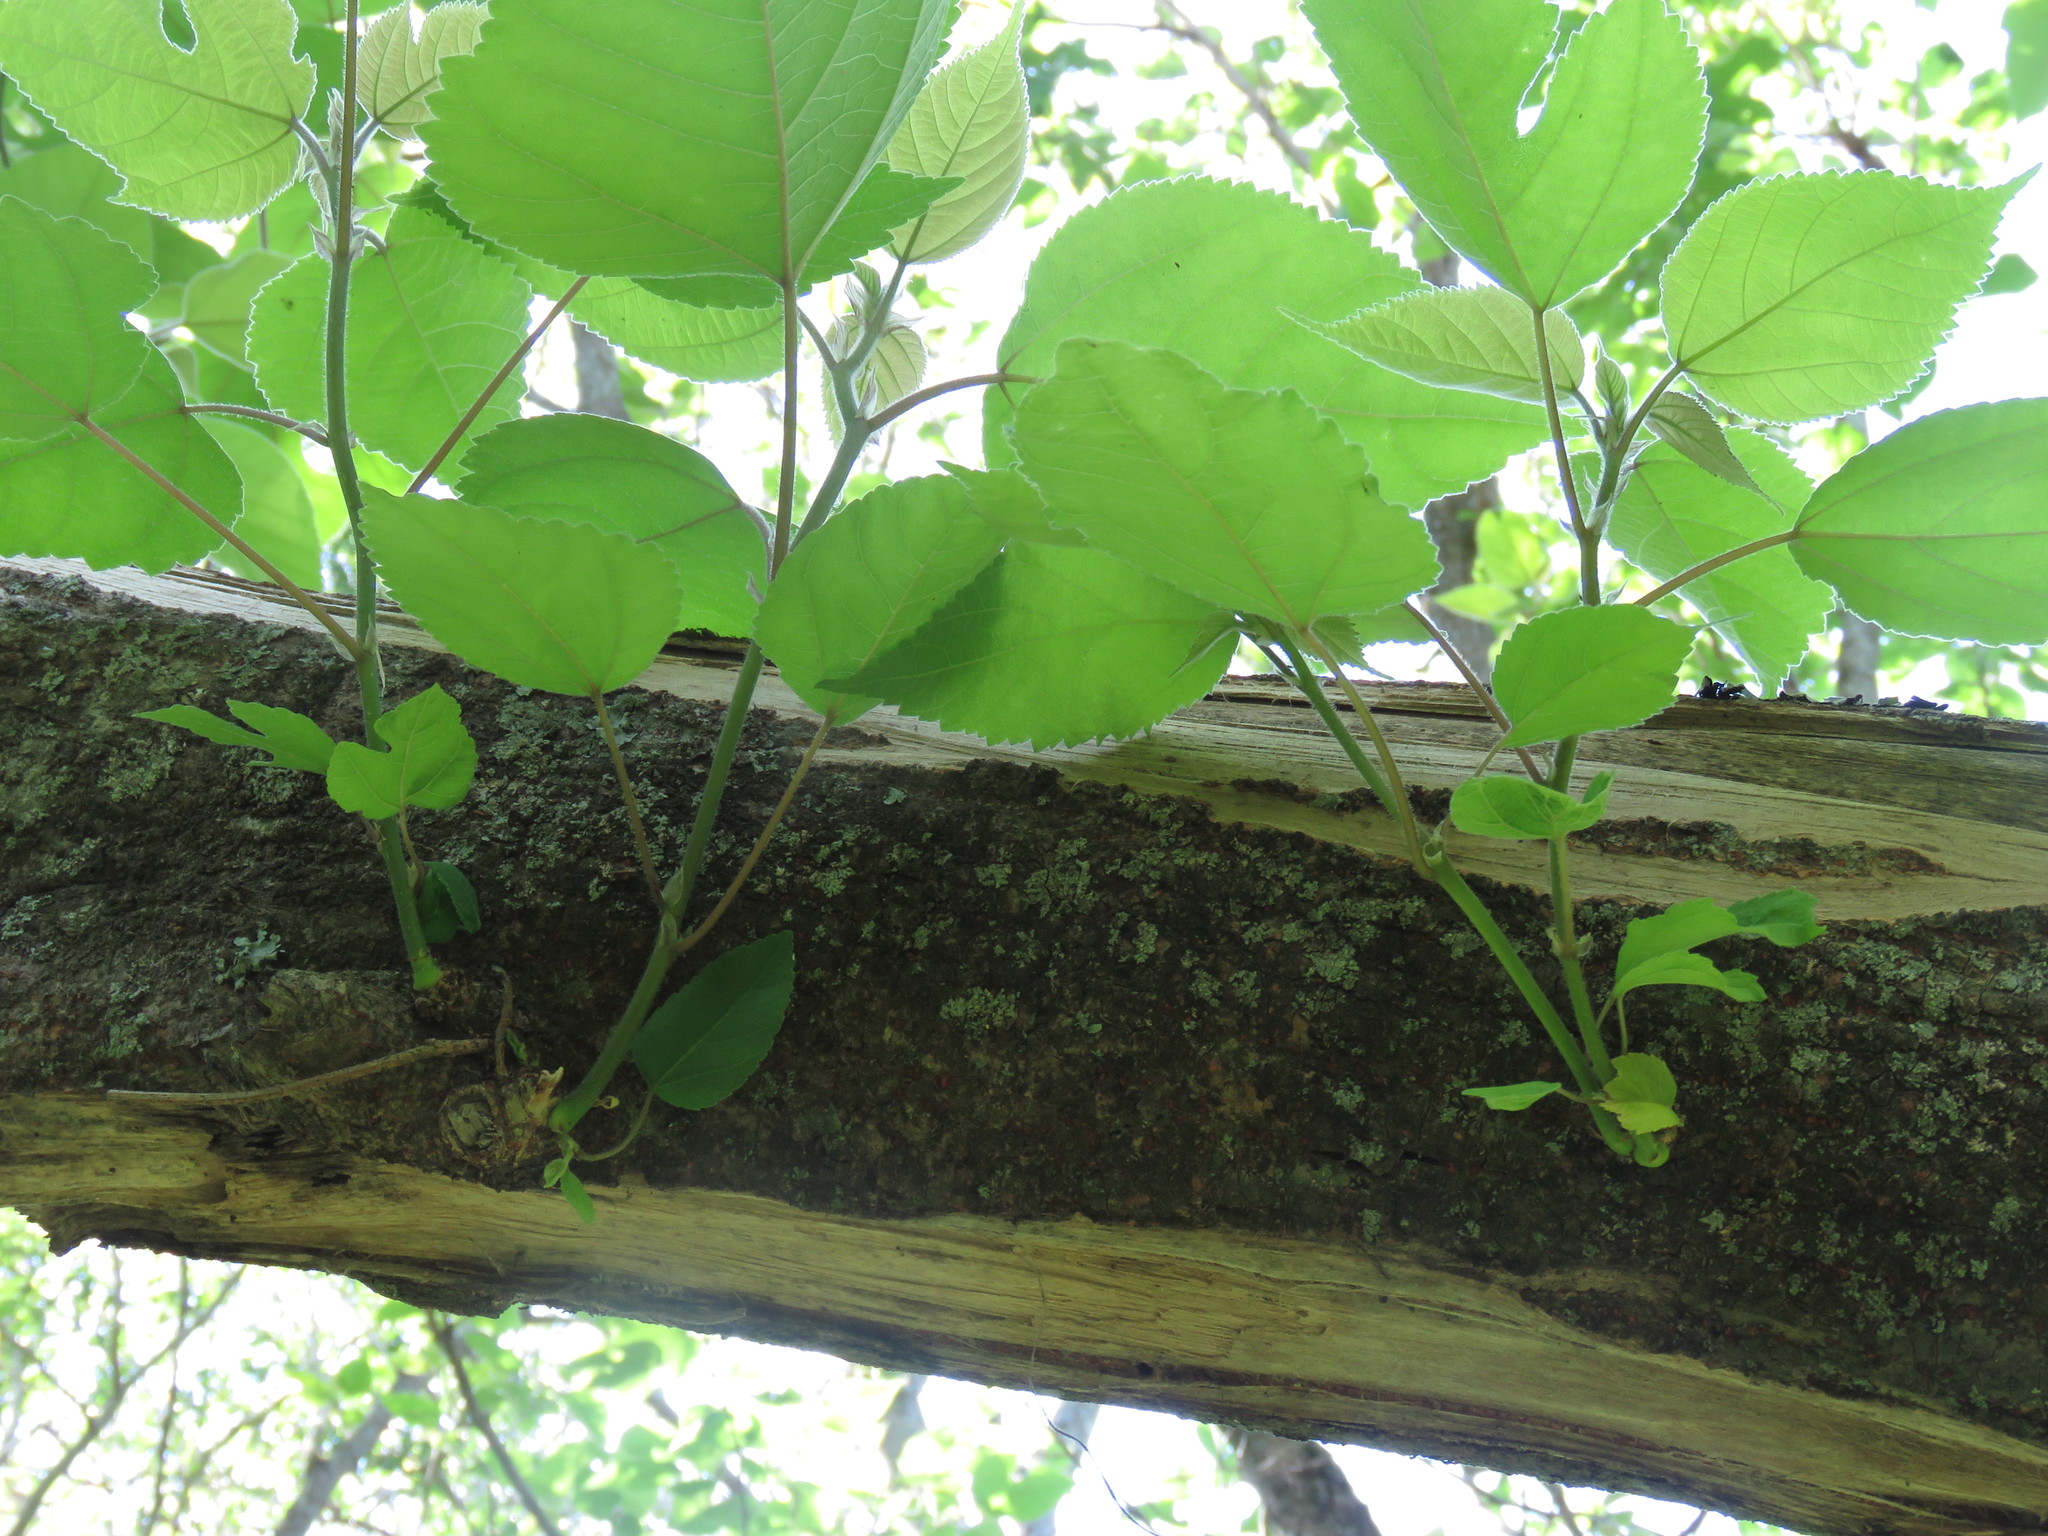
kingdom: Plantae
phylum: Tracheophyta
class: Magnoliopsida
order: Rosales
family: Moraceae
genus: Broussonetia
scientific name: Broussonetia papyrifera
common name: Paper mulberry
